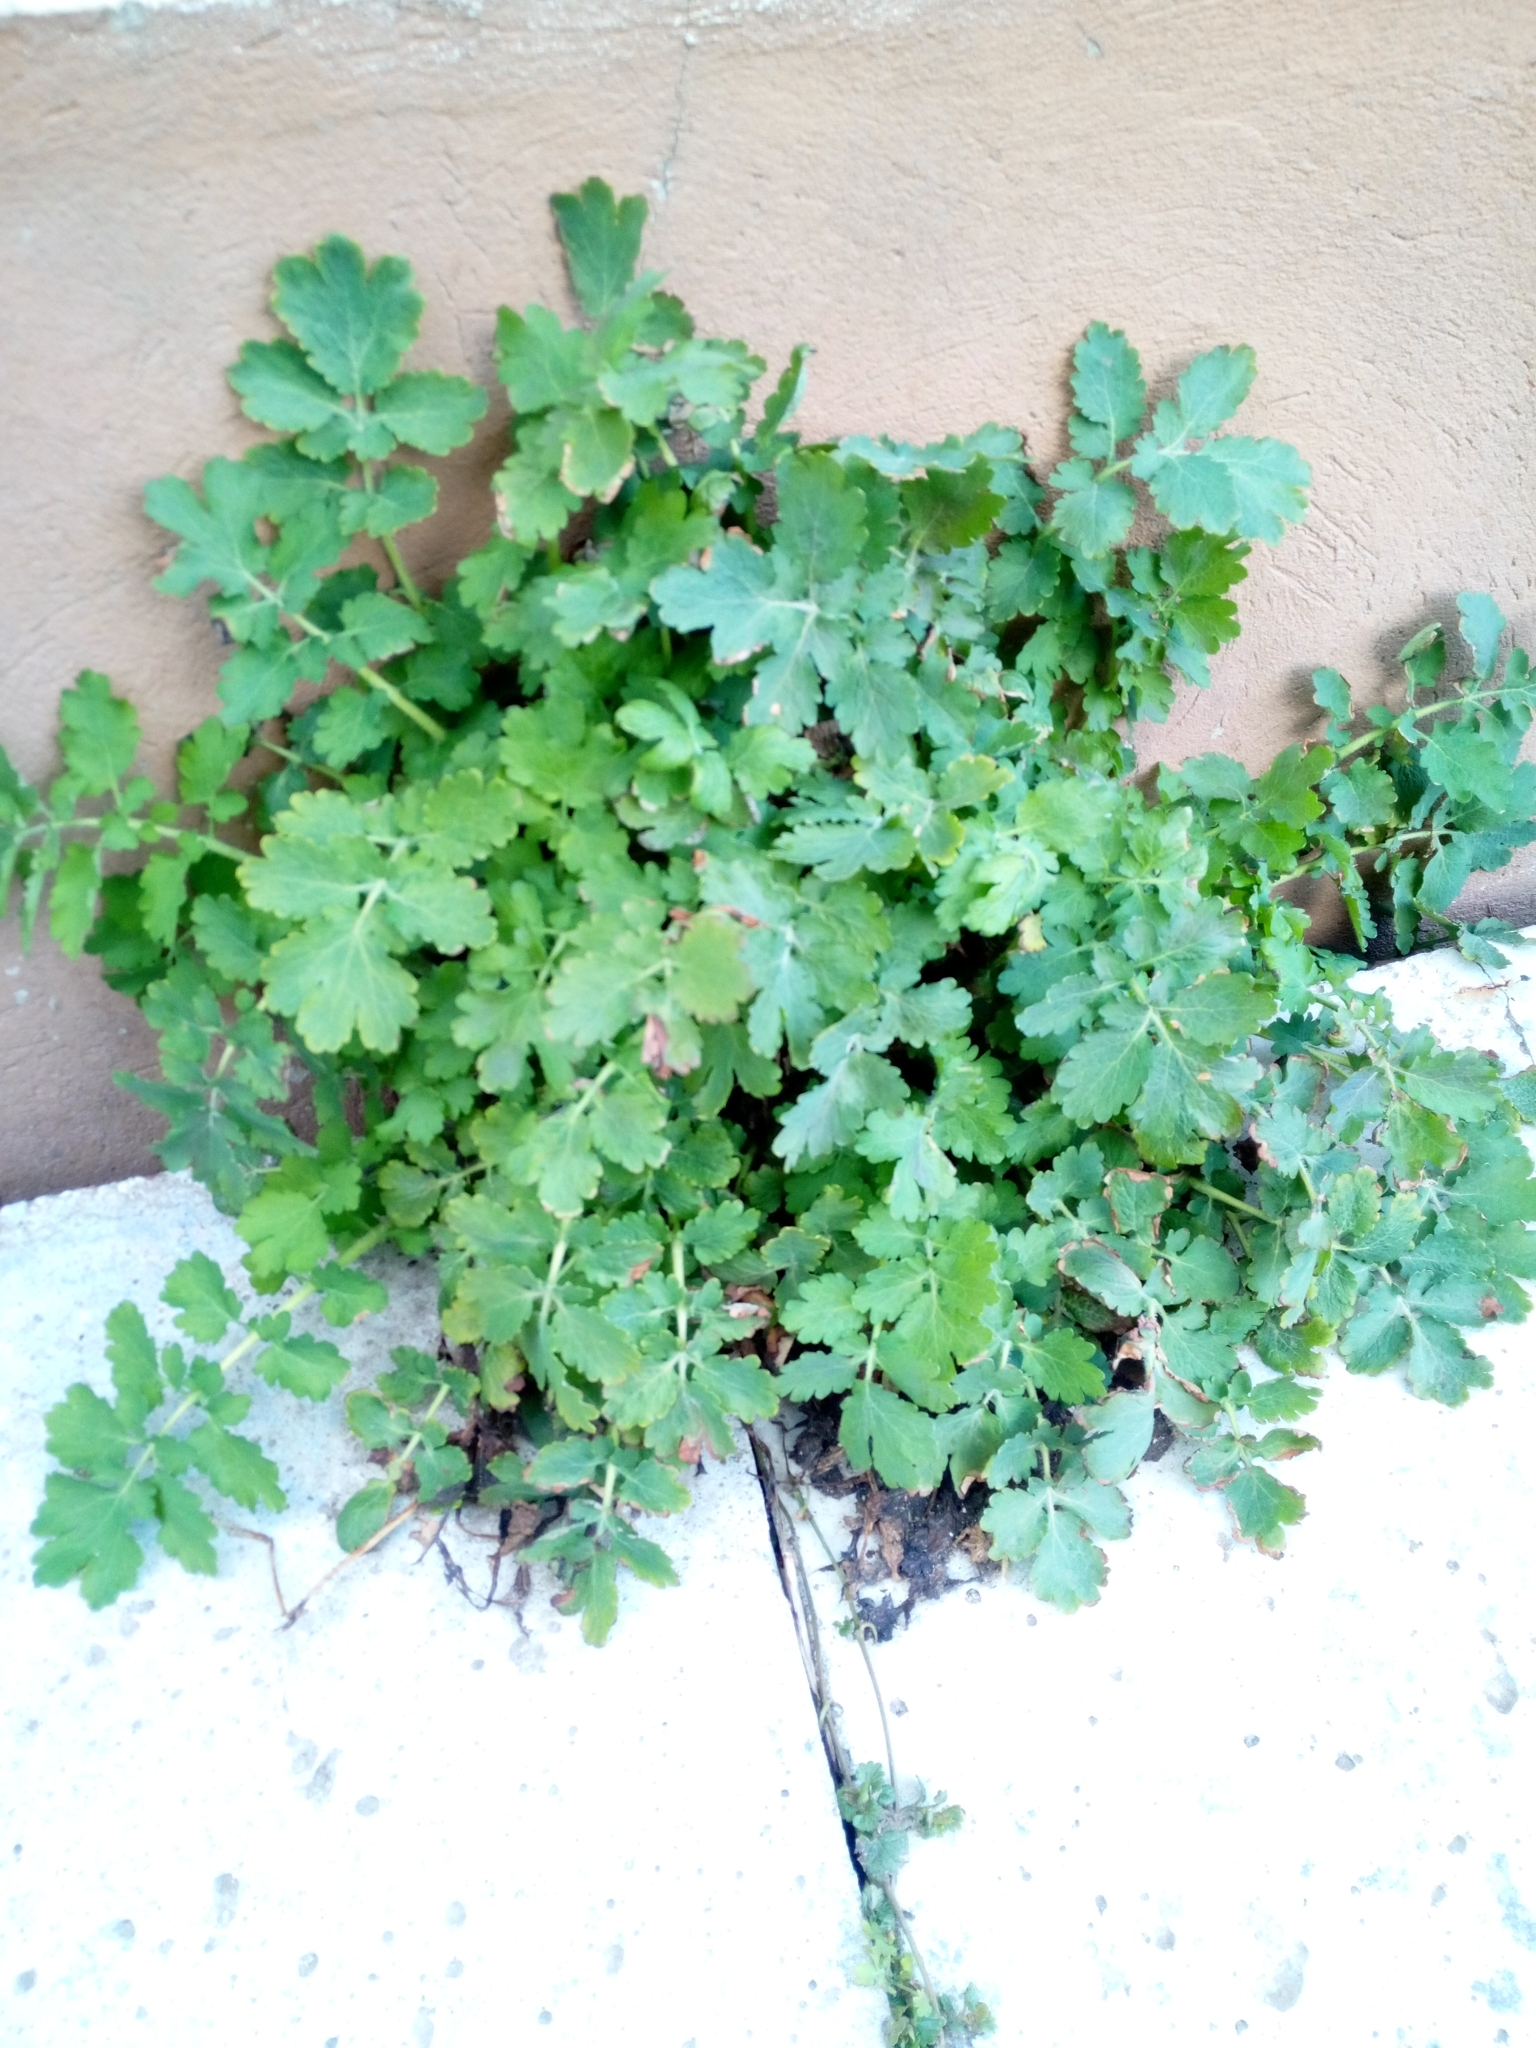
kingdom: Plantae
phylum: Tracheophyta
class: Magnoliopsida
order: Ranunculales
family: Papaveraceae
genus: Chelidonium
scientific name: Chelidonium majus
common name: Greater celandine
